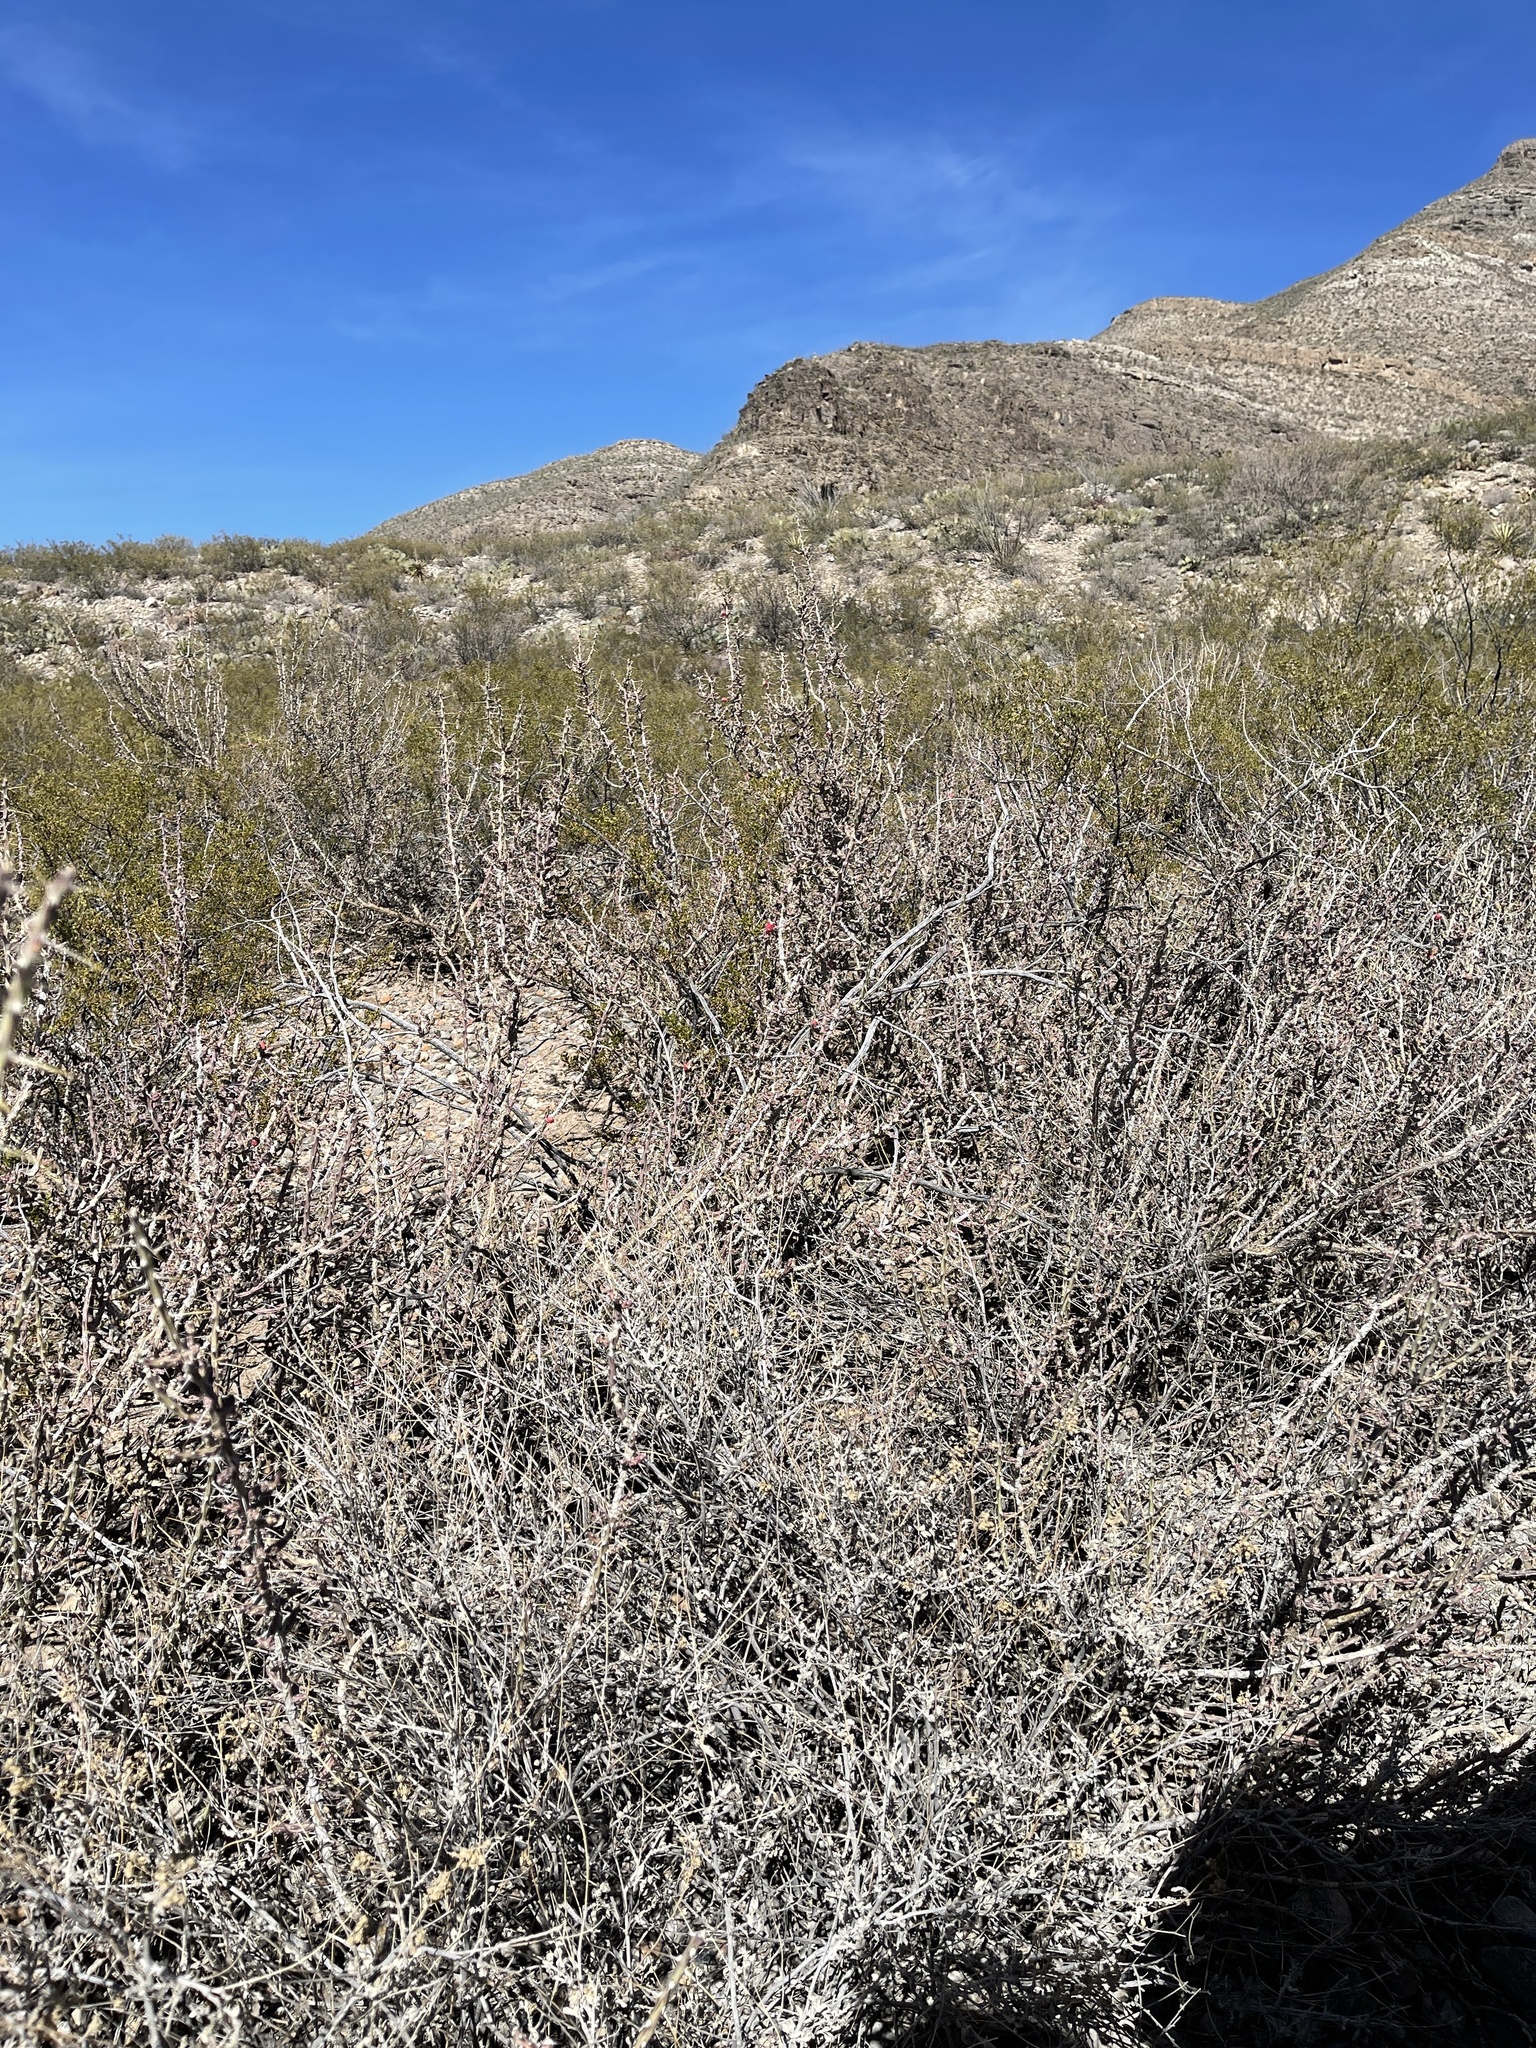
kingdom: Plantae
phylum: Tracheophyta
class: Magnoliopsida
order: Caryophyllales
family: Cactaceae
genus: Cylindropuntia
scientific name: Cylindropuntia leptocaulis
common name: Christmas cactus
